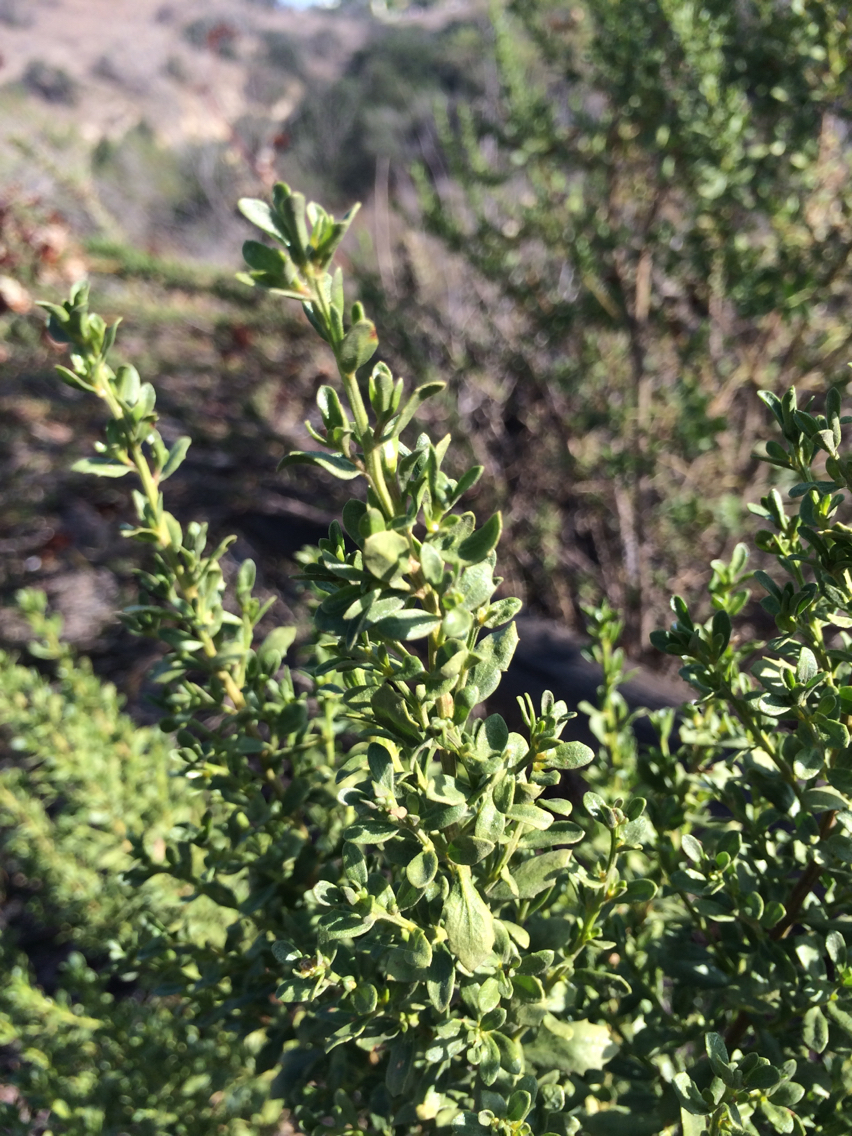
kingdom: Plantae
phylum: Tracheophyta
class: Magnoliopsida
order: Asterales
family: Asteraceae
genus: Baccharis
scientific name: Baccharis pilularis
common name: Coyotebrush
